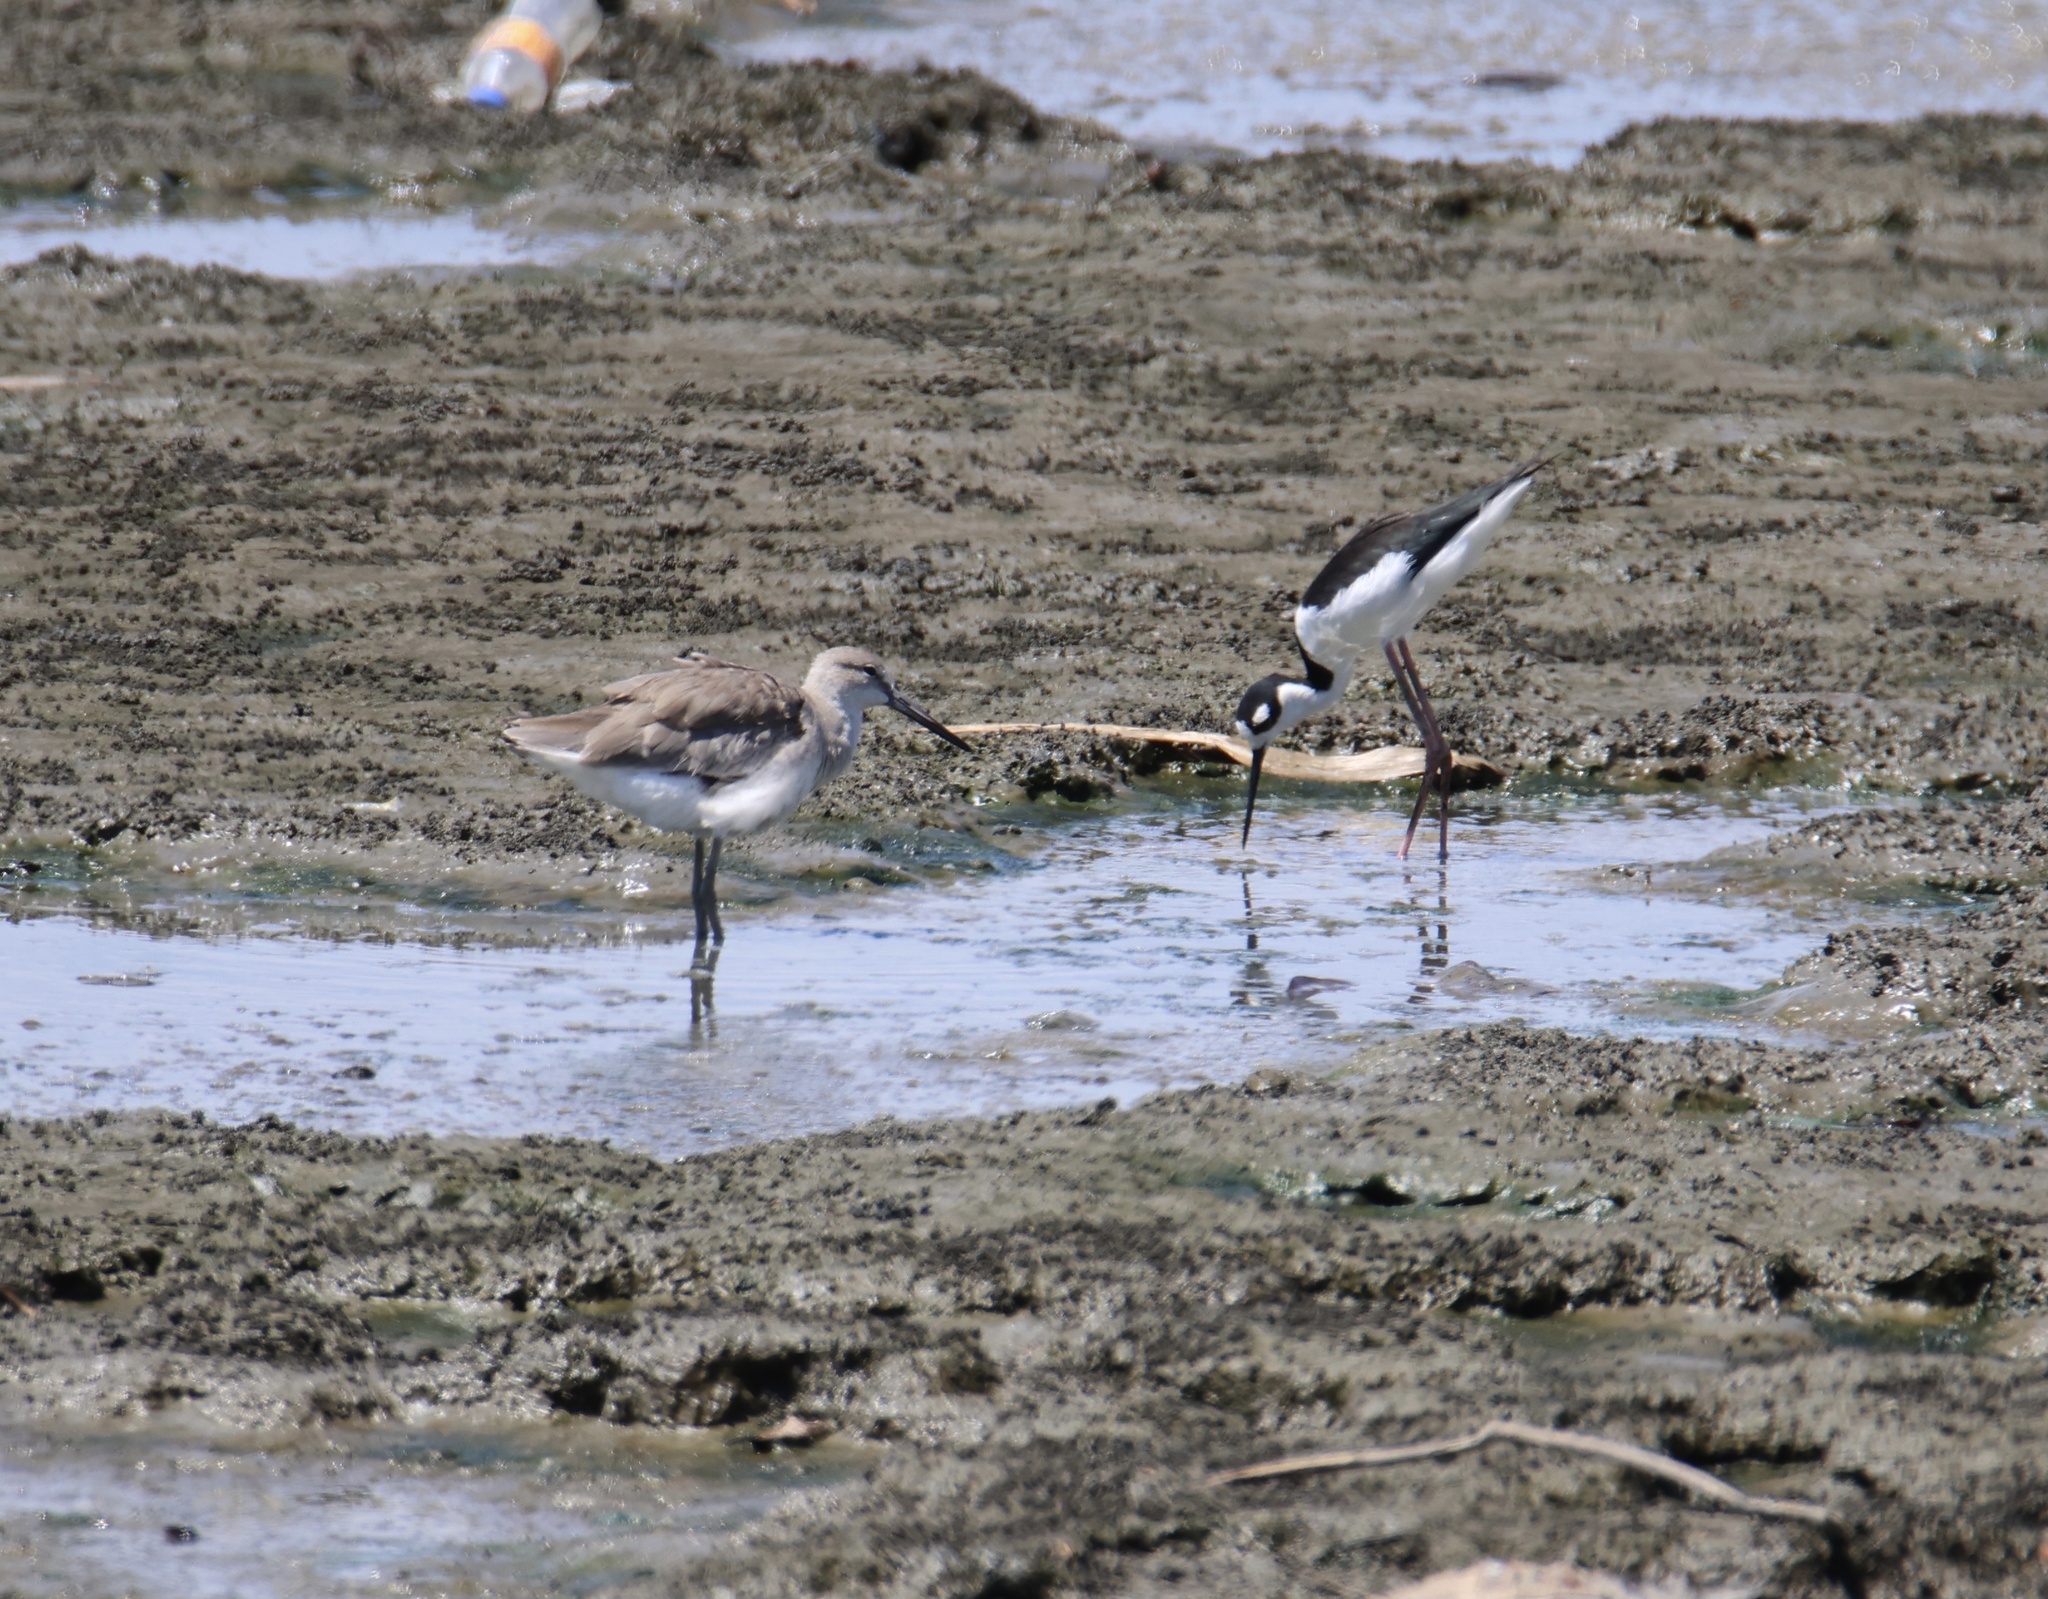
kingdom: Animalia
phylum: Chordata
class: Aves
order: Charadriiformes
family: Recurvirostridae
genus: Himantopus
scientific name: Himantopus mexicanus
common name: Black-necked stilt
